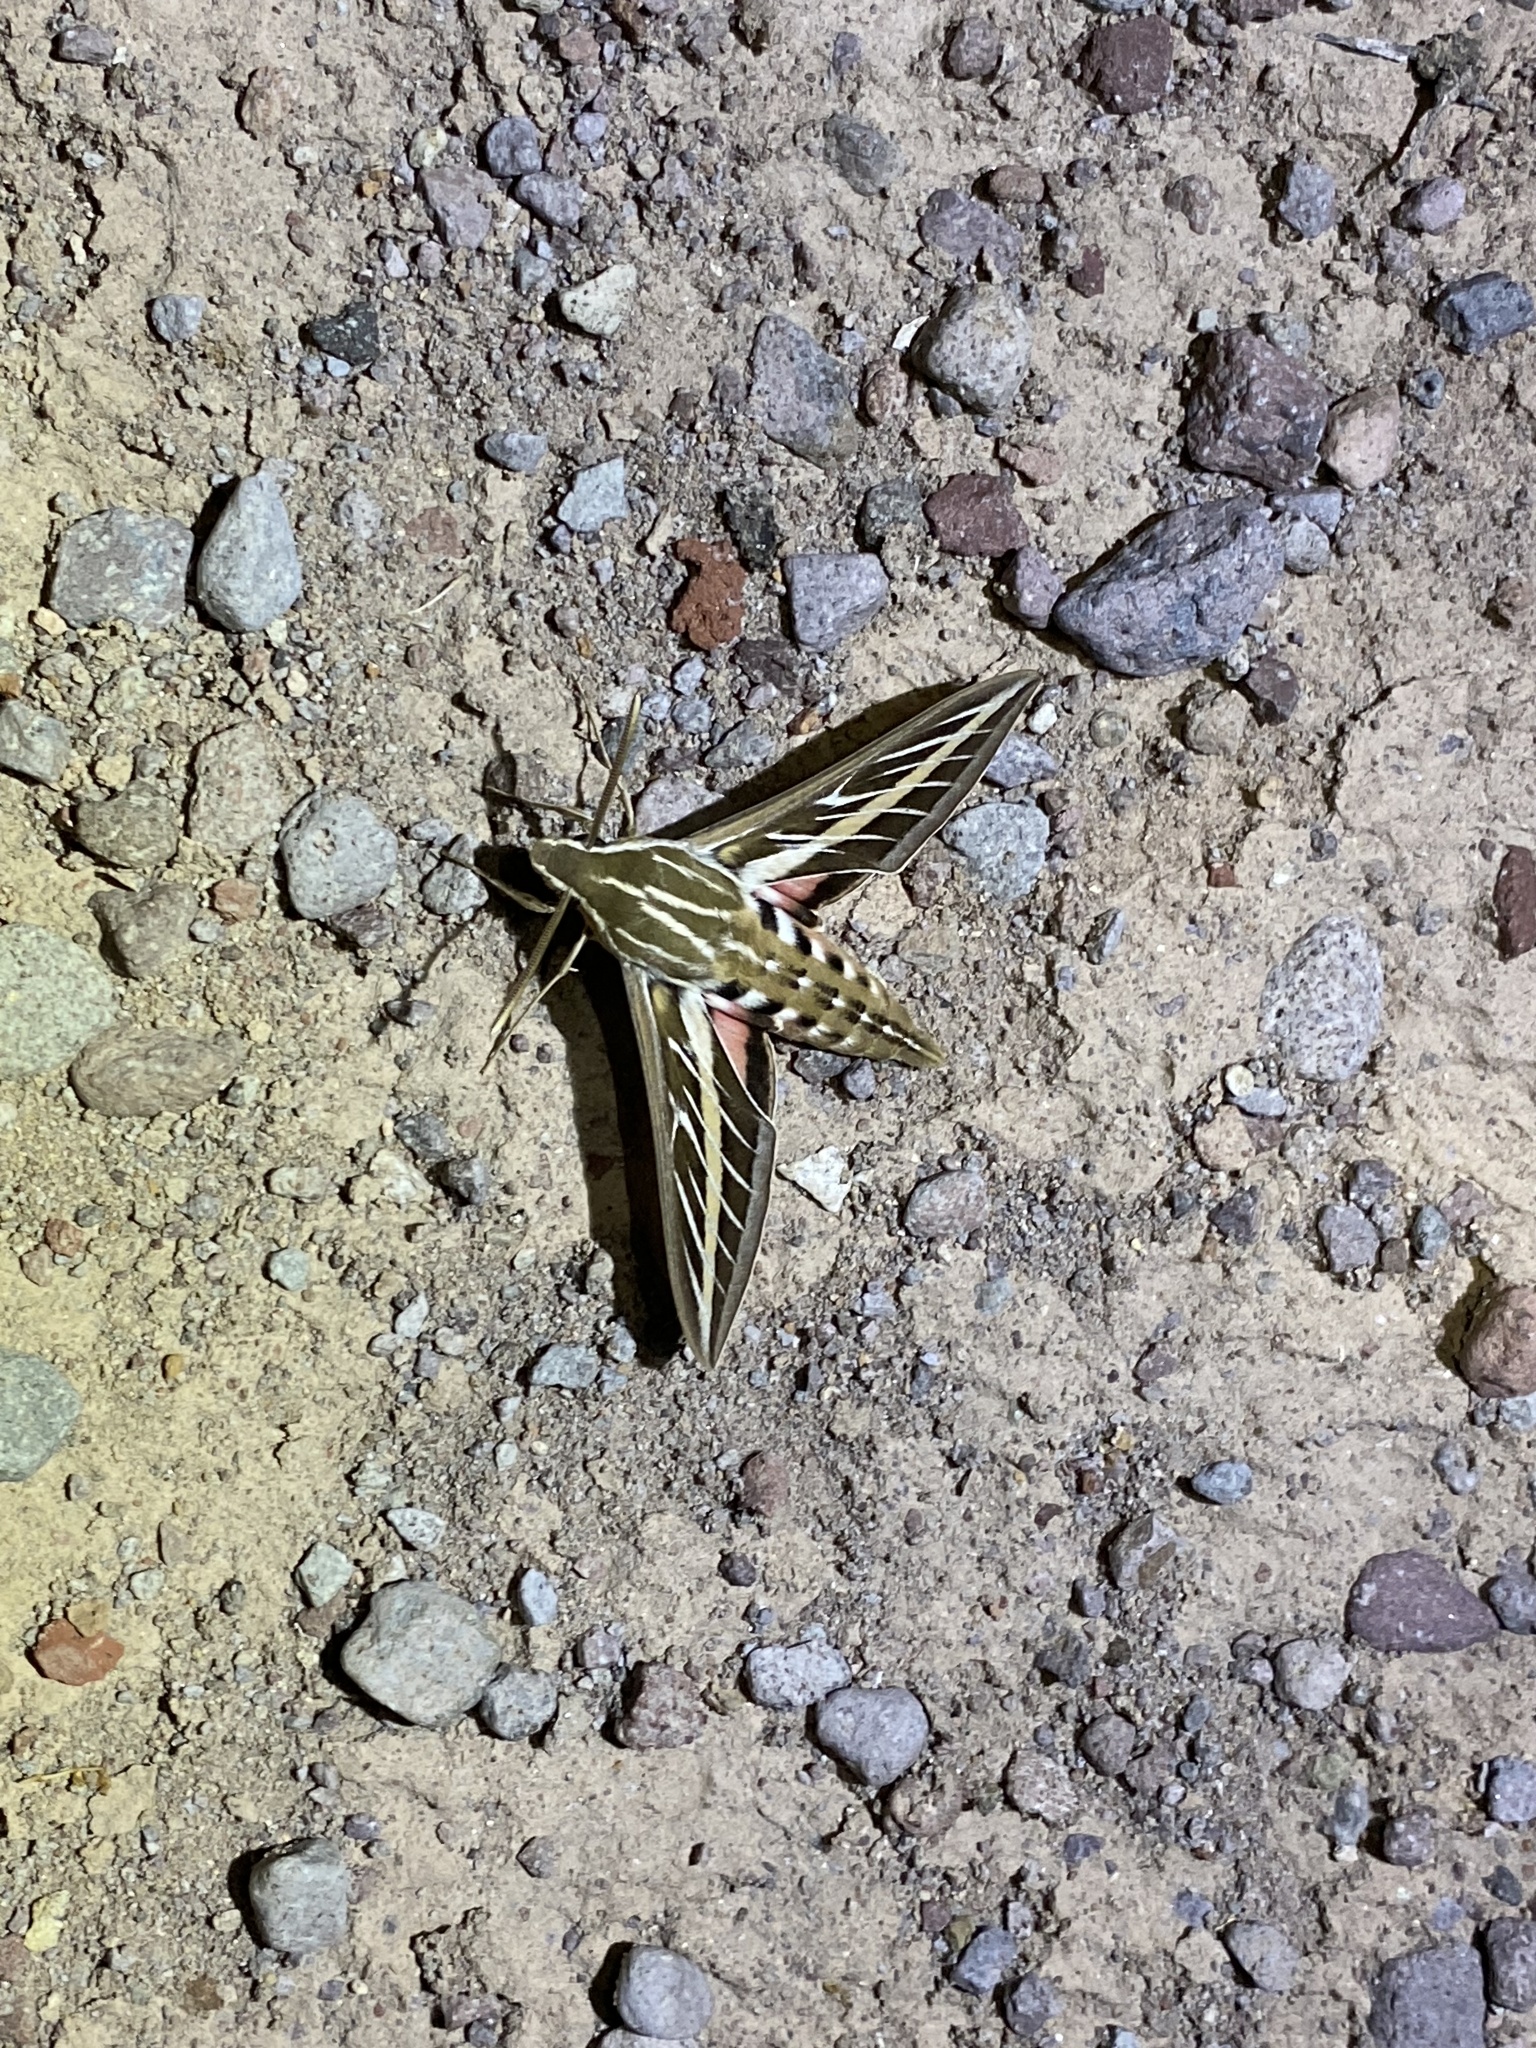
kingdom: Animalia
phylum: Arthropoda
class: Insecta
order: Lepidoptera
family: Sphingidae
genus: Hyles
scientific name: Hyles lineata
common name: White-lined sphinx
